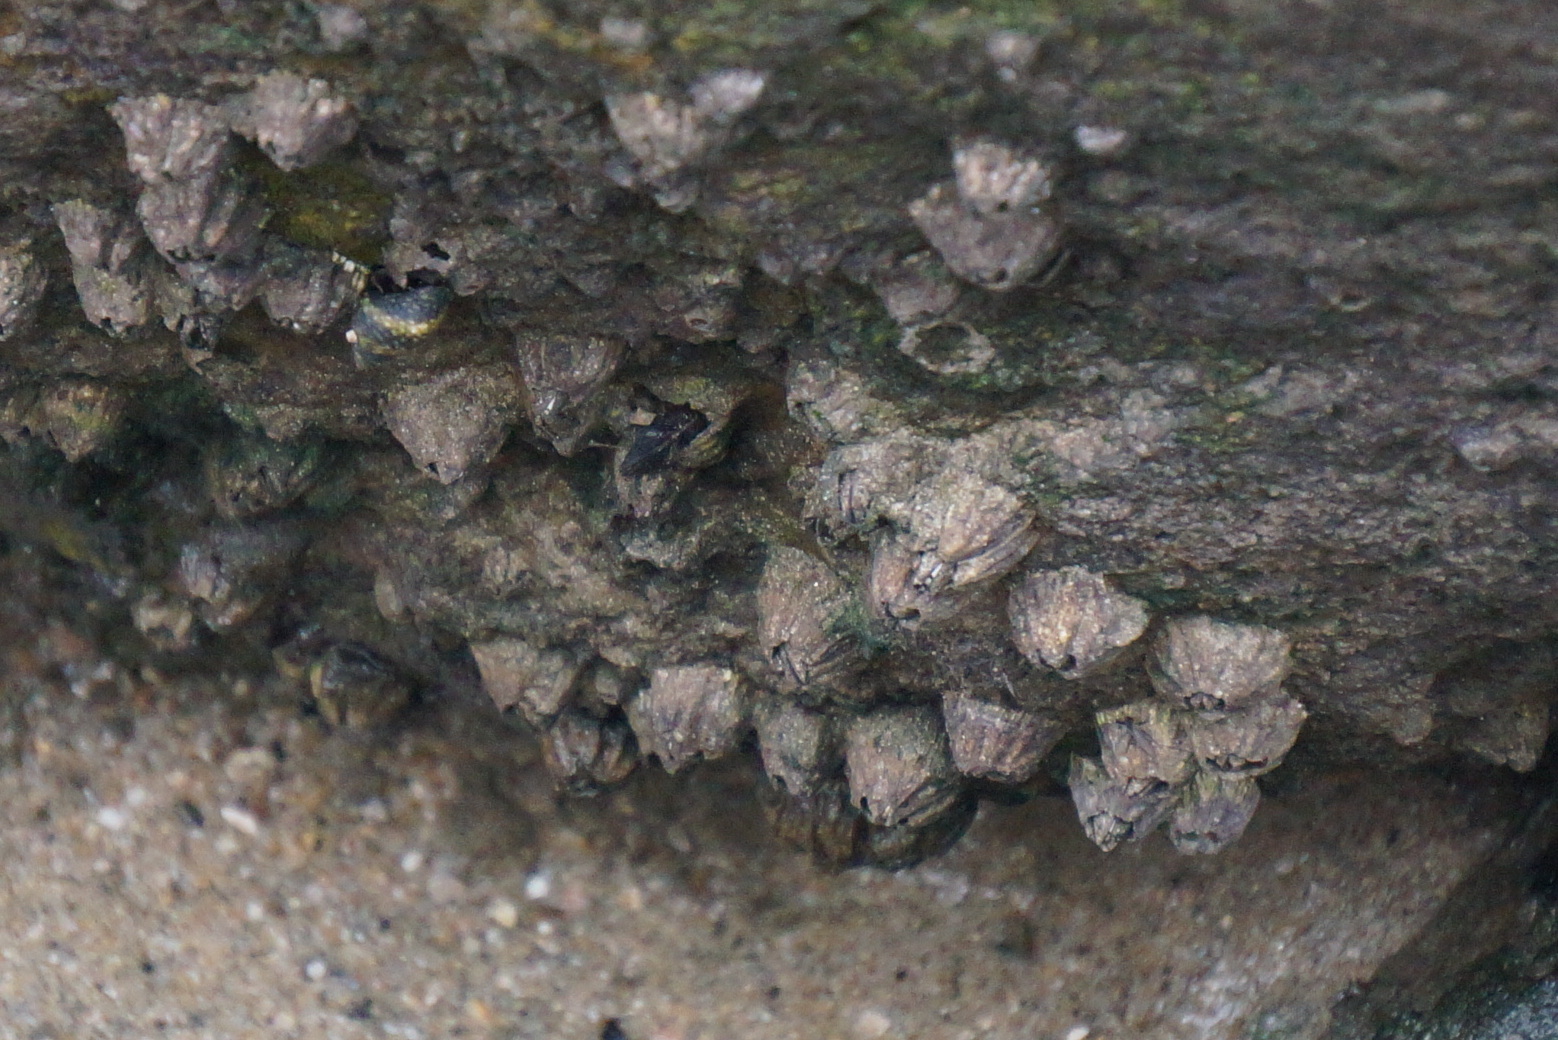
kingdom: Animalia
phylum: Arthropoda
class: Maxillopoda
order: Sessilia
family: Balanidae
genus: Balanus
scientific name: Balanus glandula
